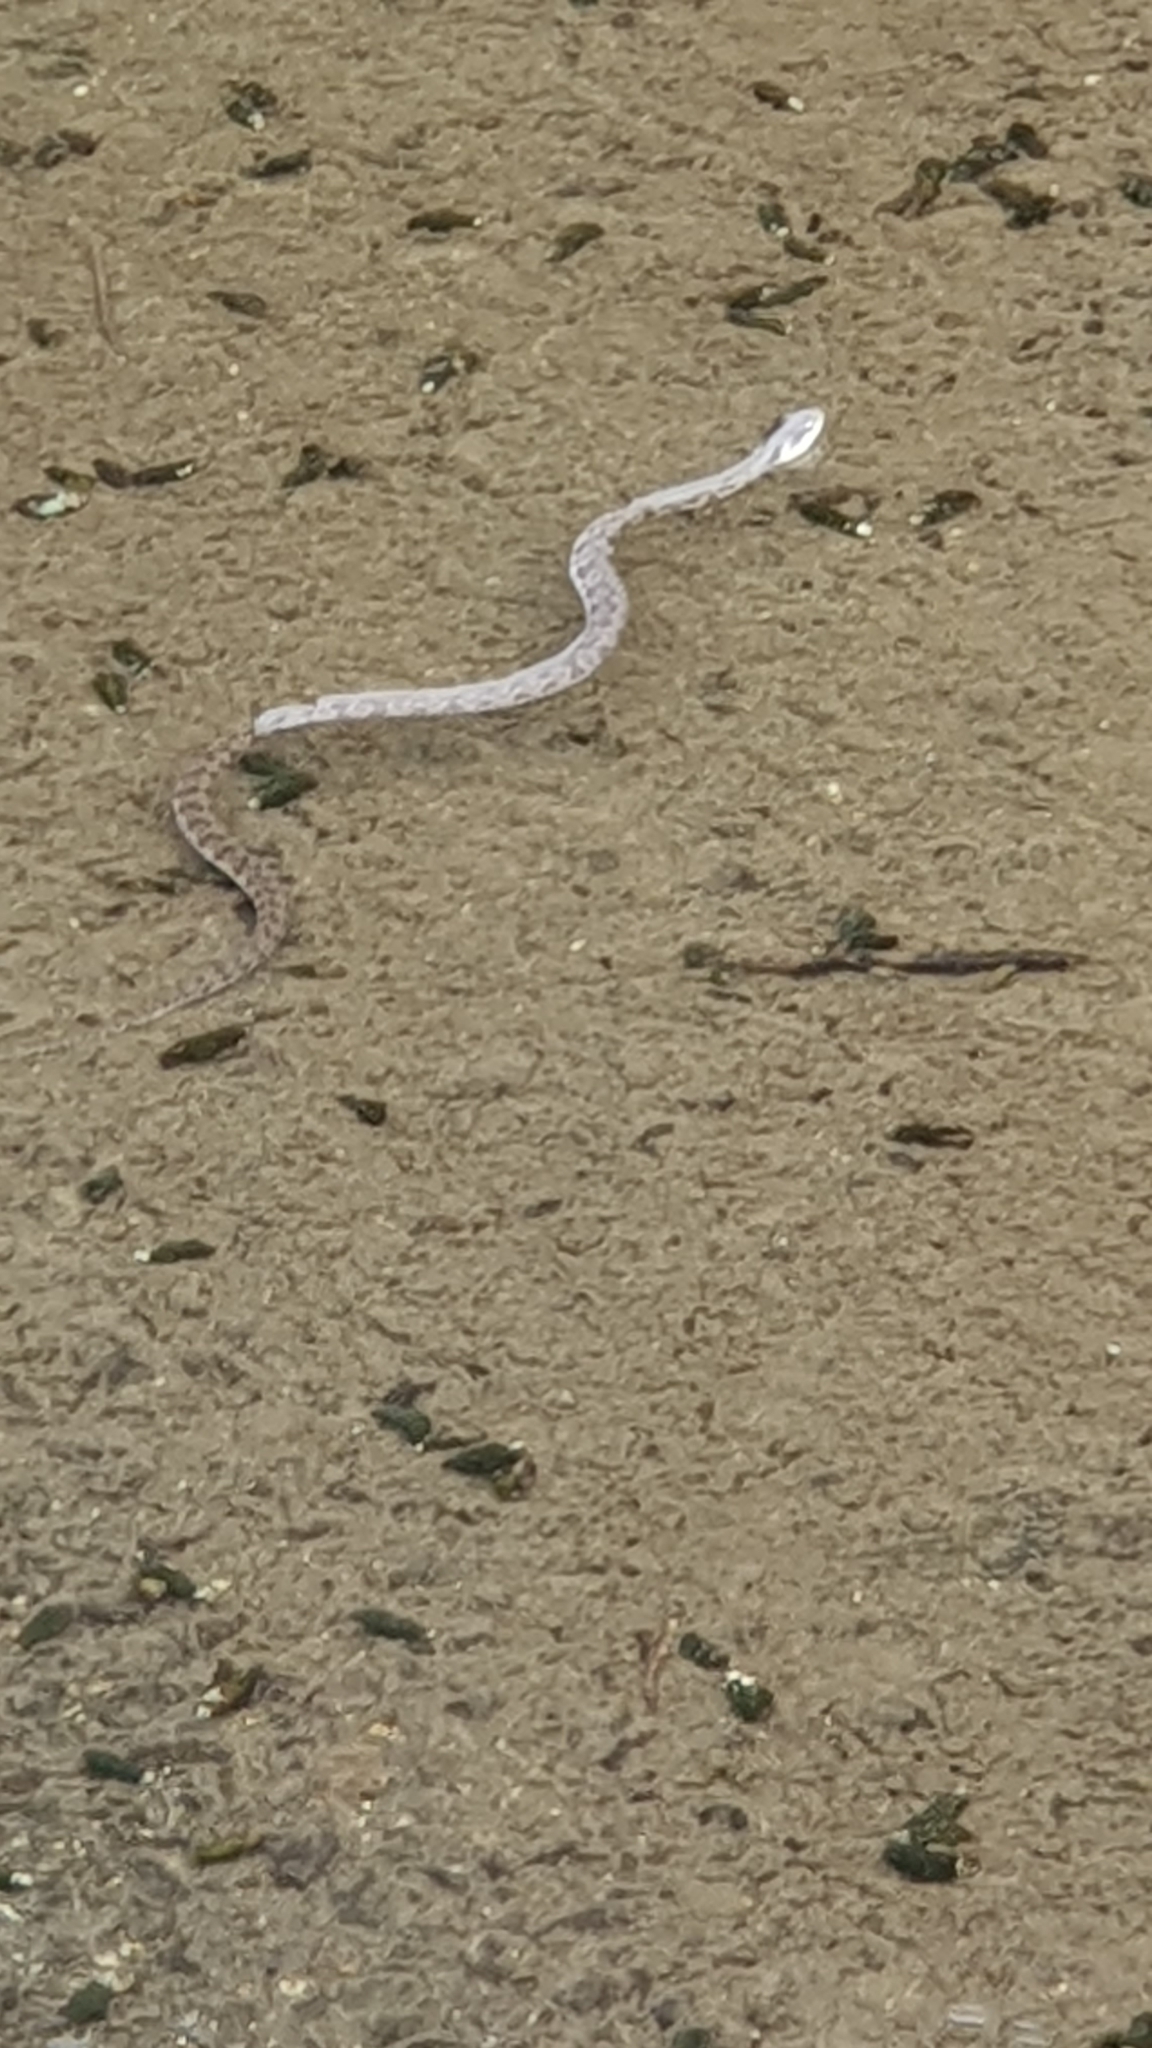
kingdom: Animalia
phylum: Chordata
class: Squamata
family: Colubridae
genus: Elaphe
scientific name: Elaphe climacophora
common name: Japanese ratsnake
